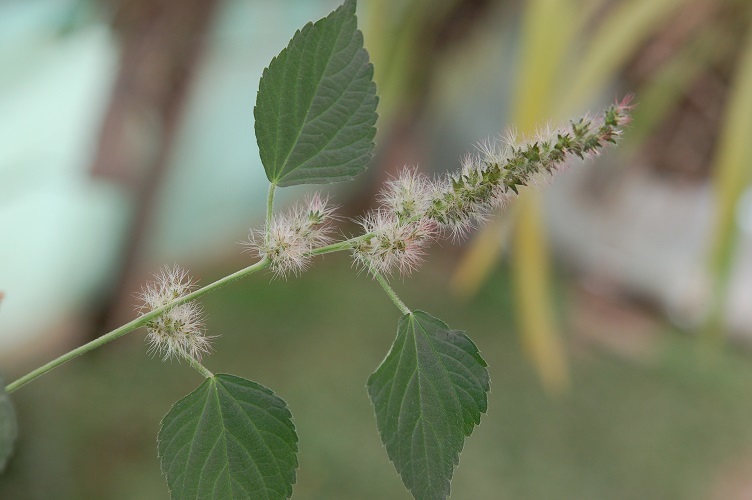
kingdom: Plantae
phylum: Tracheophyta
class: Magnoliopsida
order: Malpighiales
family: Euphorbiaceae
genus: Acalypha
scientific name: Acalypha phleoides
